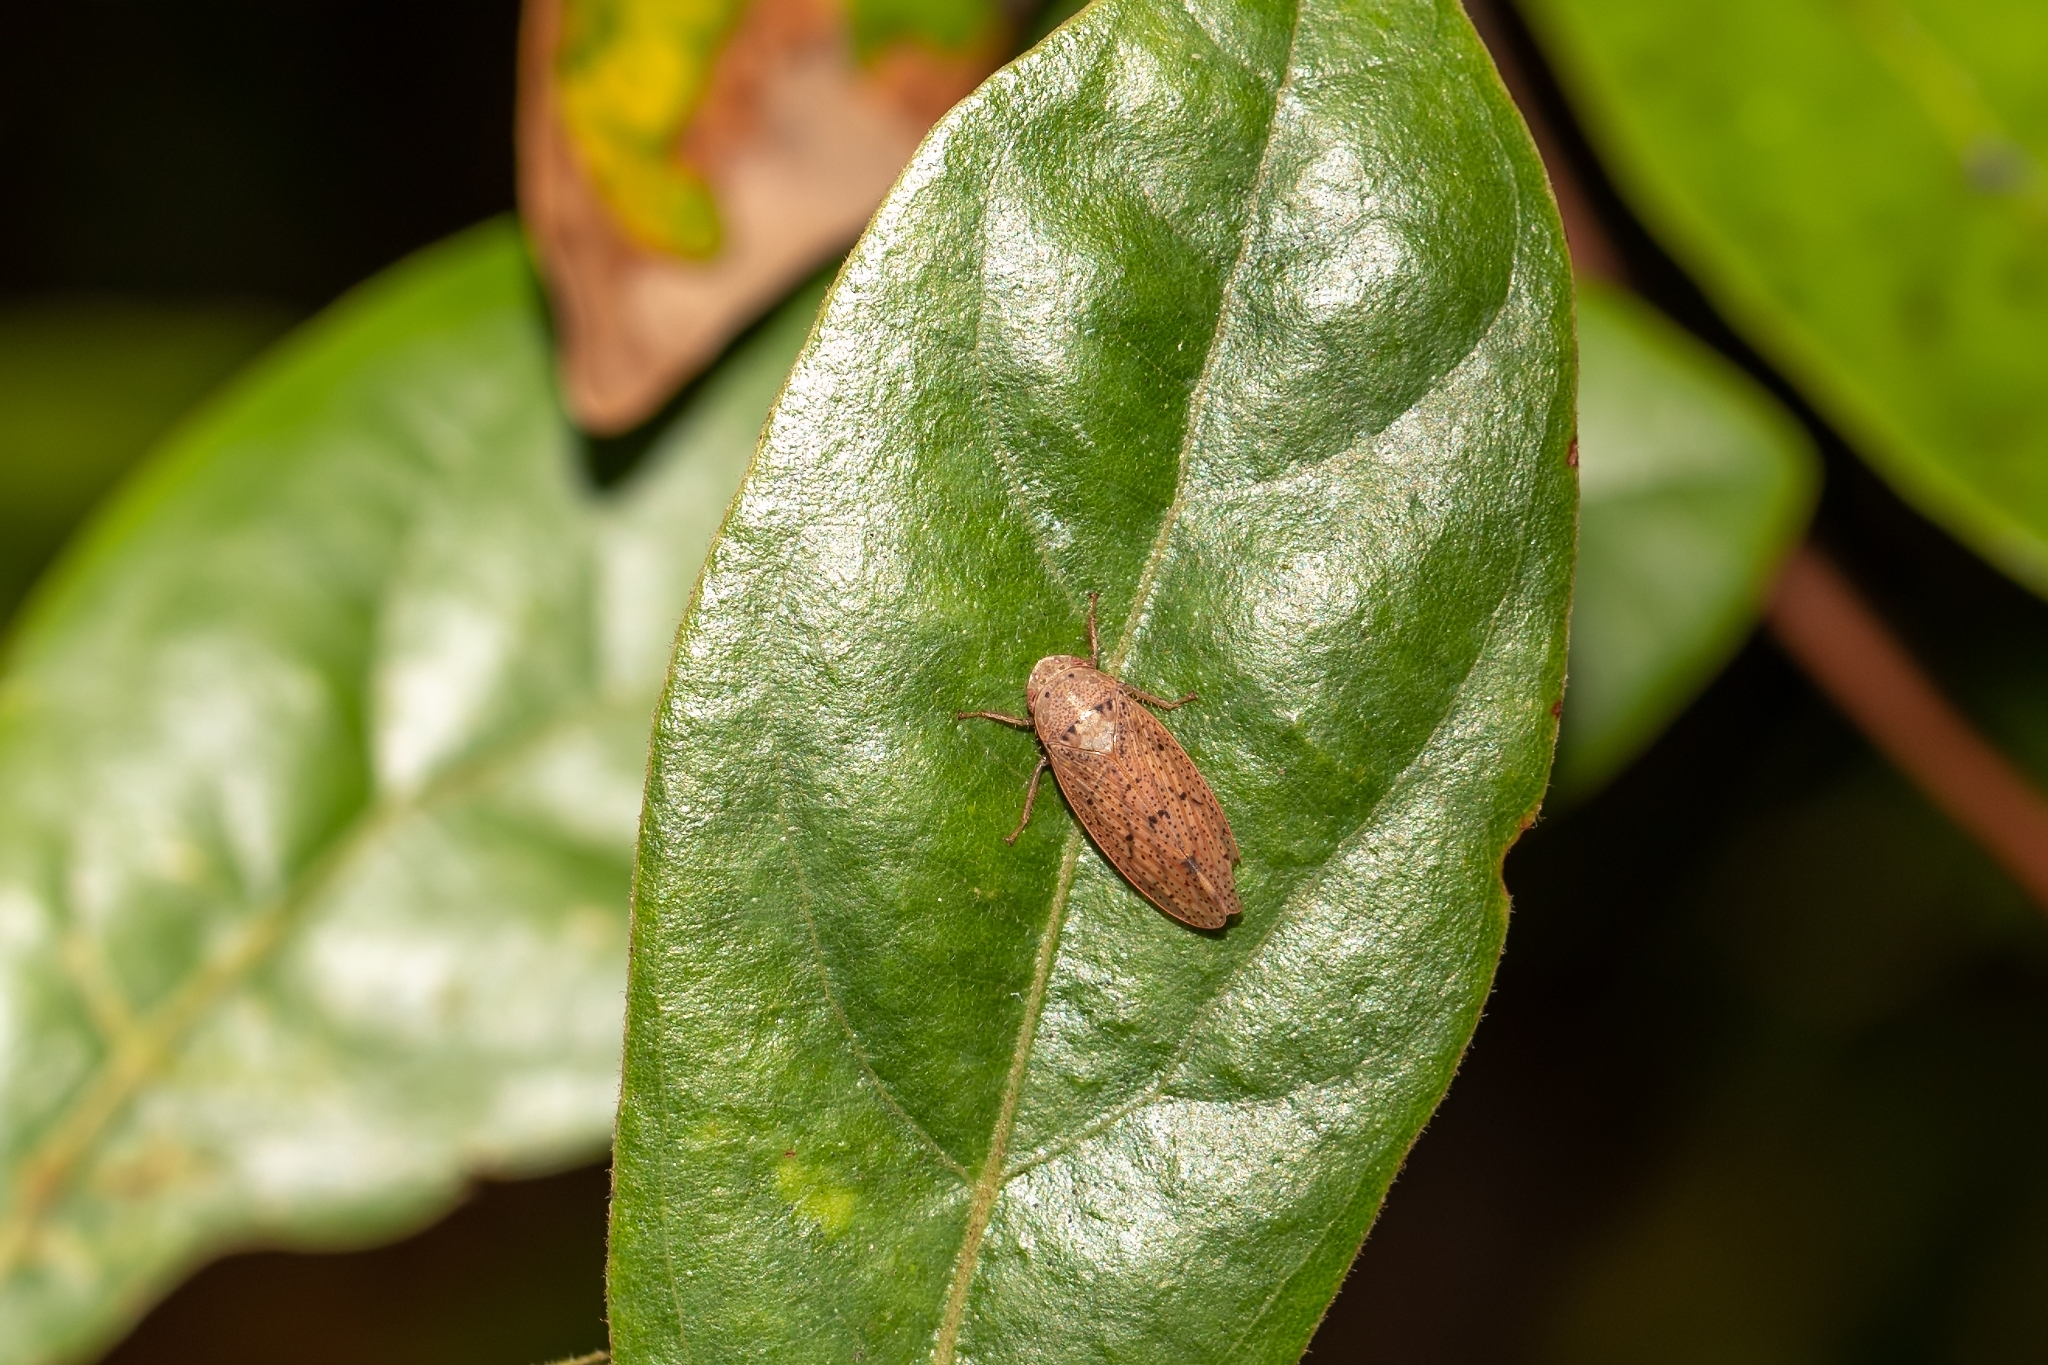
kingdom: Animalia
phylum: Arthropoda
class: Insecta
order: Hemiptera
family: Cicadellidae
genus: Ponana
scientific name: Ponana puncticollis
